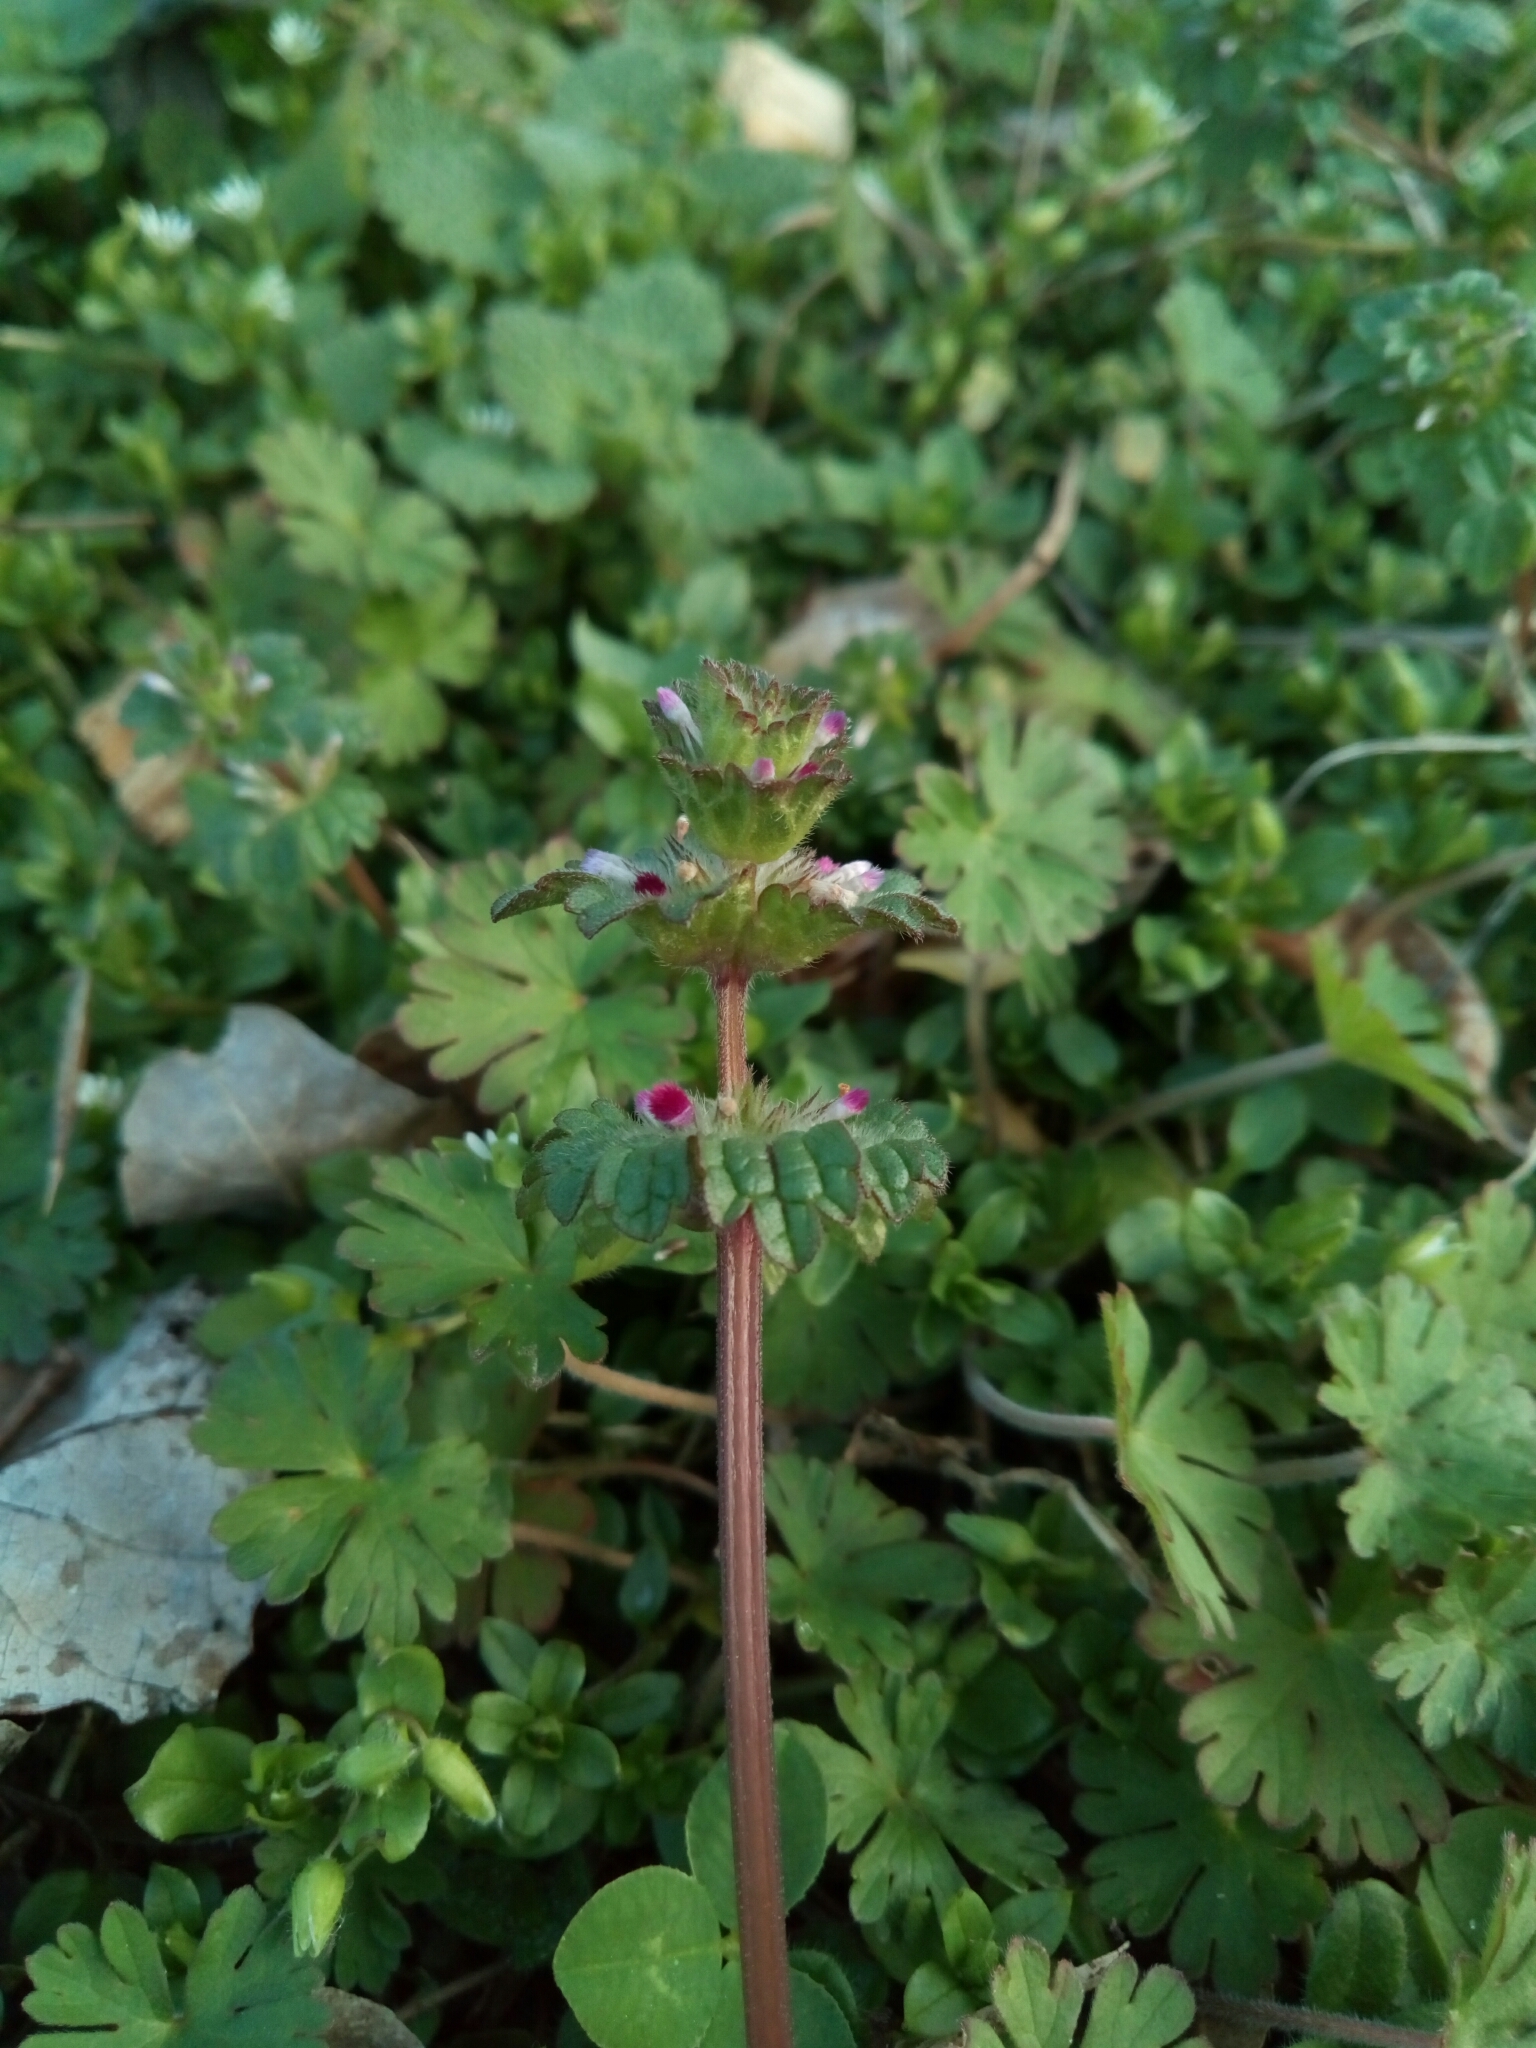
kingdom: Plantae
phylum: Tracheophyta
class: Magnoliopsida
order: Lamiales
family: Lamiaceae
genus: Lamium
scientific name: Lamium amplexicaule
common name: Henbit dead-nettle
